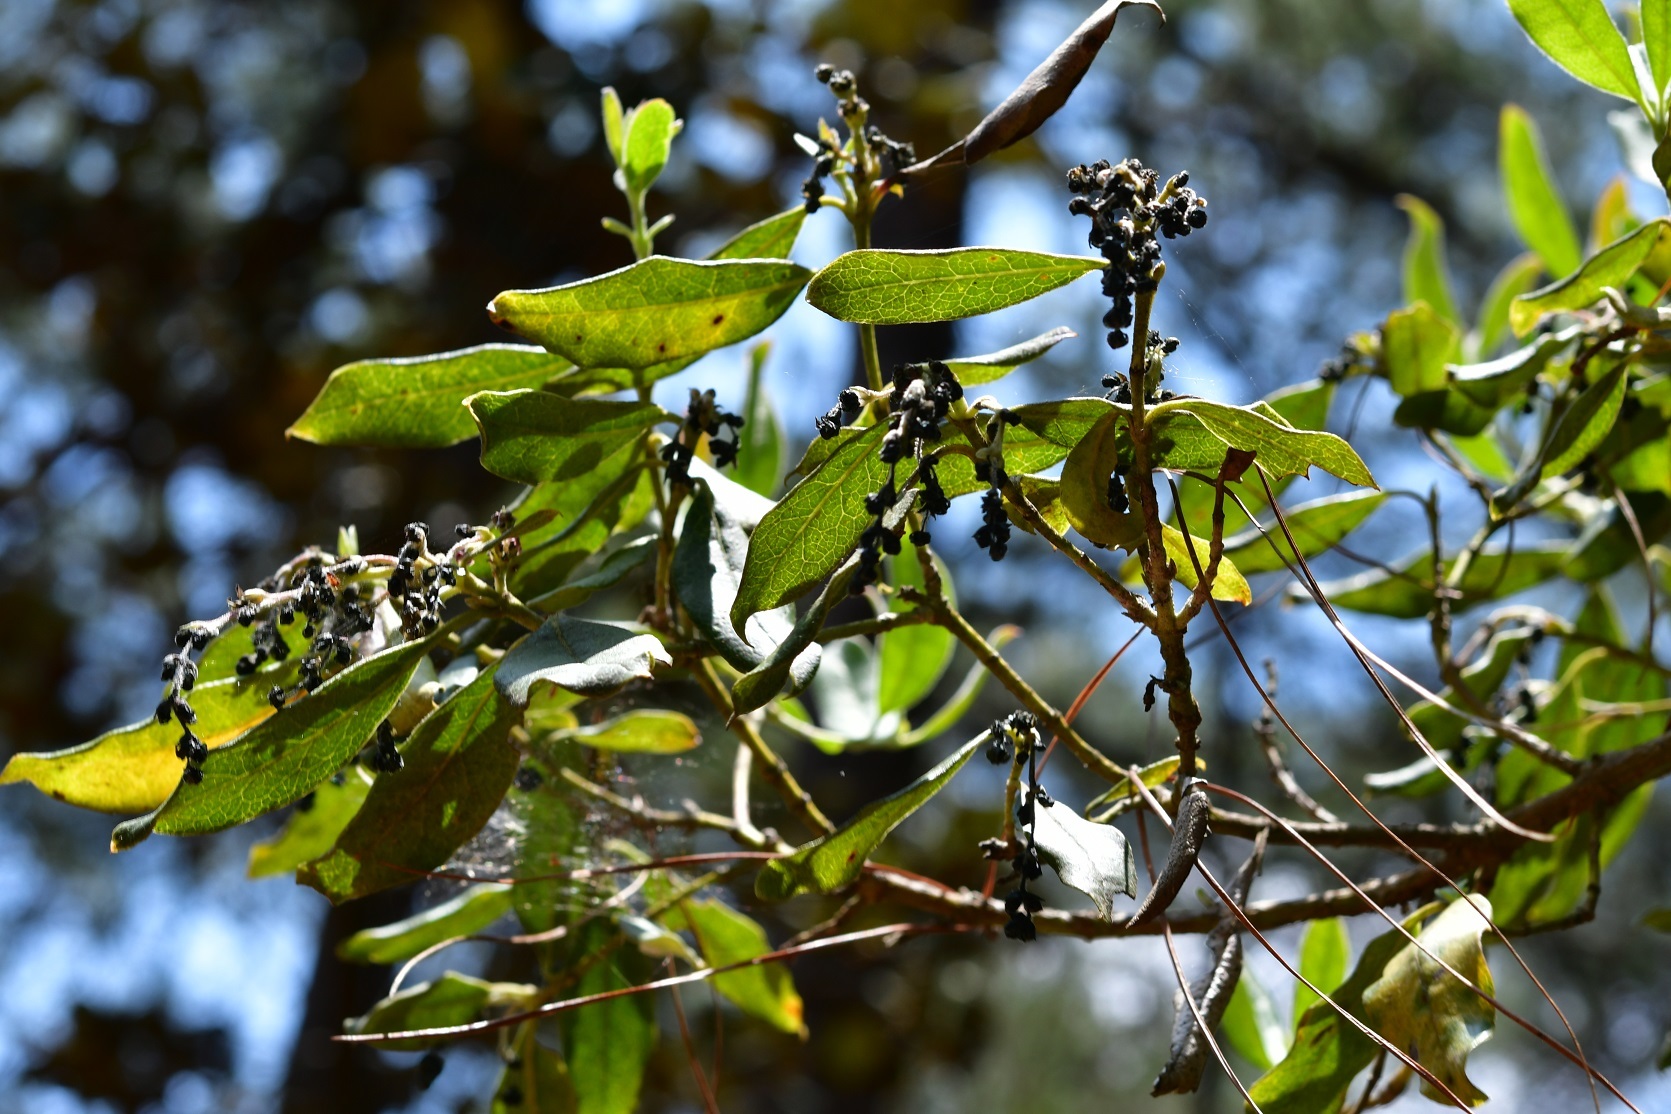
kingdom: Plantae
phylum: Tracheophyta
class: Magnoliopsida
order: Garryales
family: Garryaceae
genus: Garrya
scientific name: Garrya laurifolia
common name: Cuachichic
